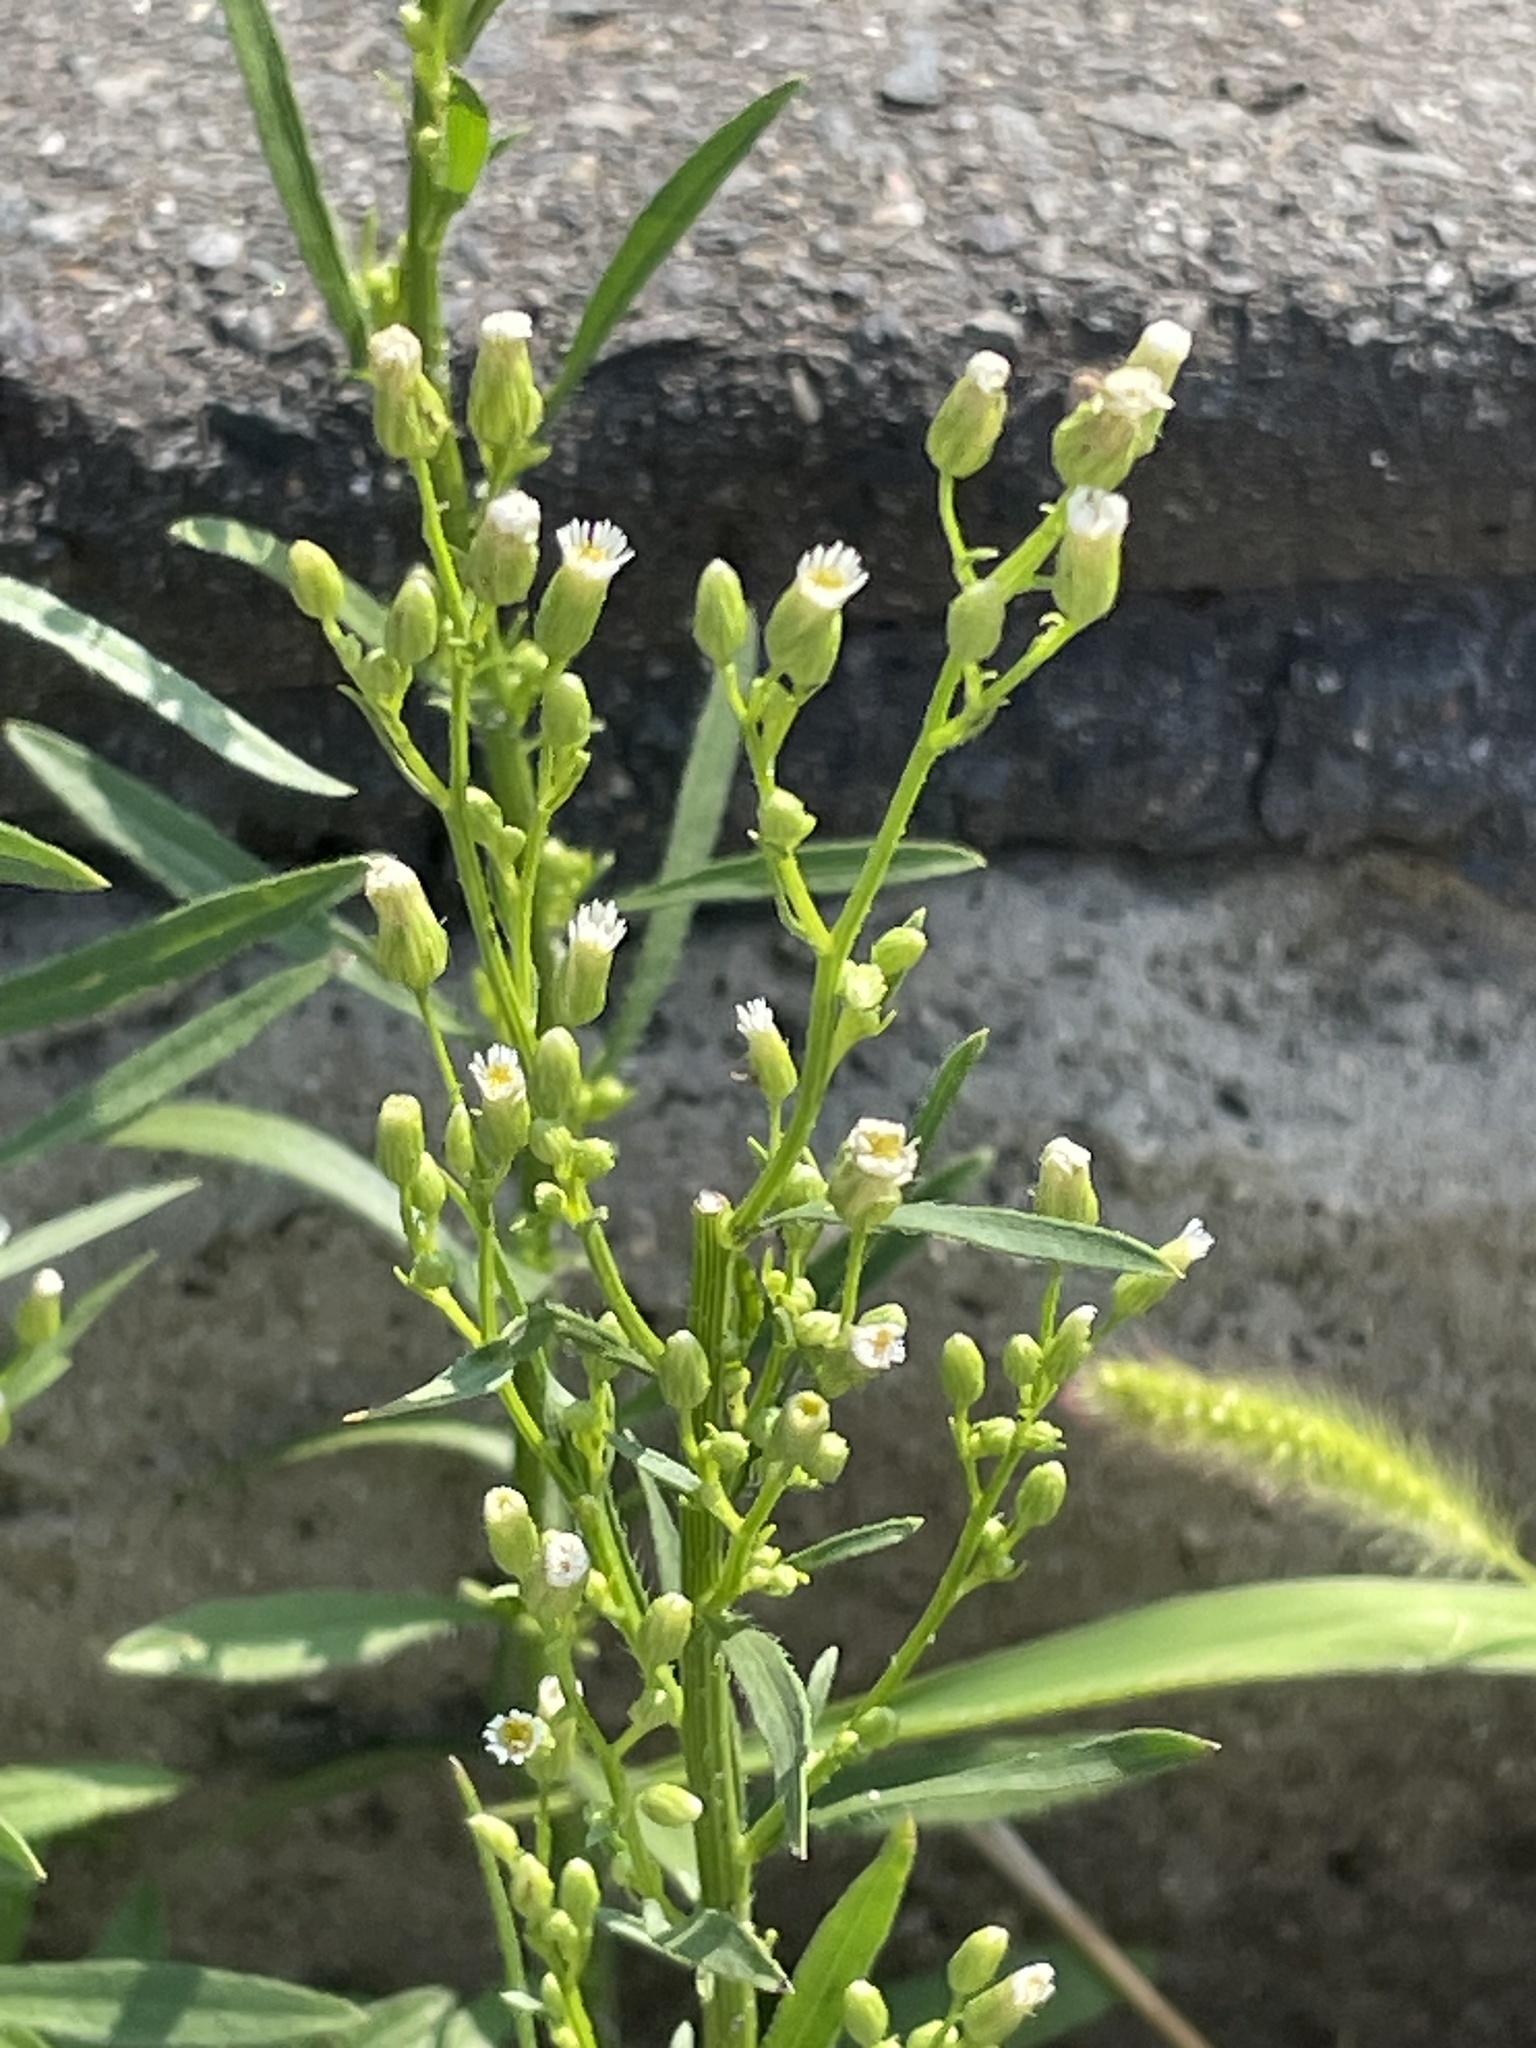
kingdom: Plantae
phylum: Tracheophyta
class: Magnoliopsida
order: Asterales
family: Asteraceae
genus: Erigeron
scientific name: Erigeron canadensis
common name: Canadian fleabane
